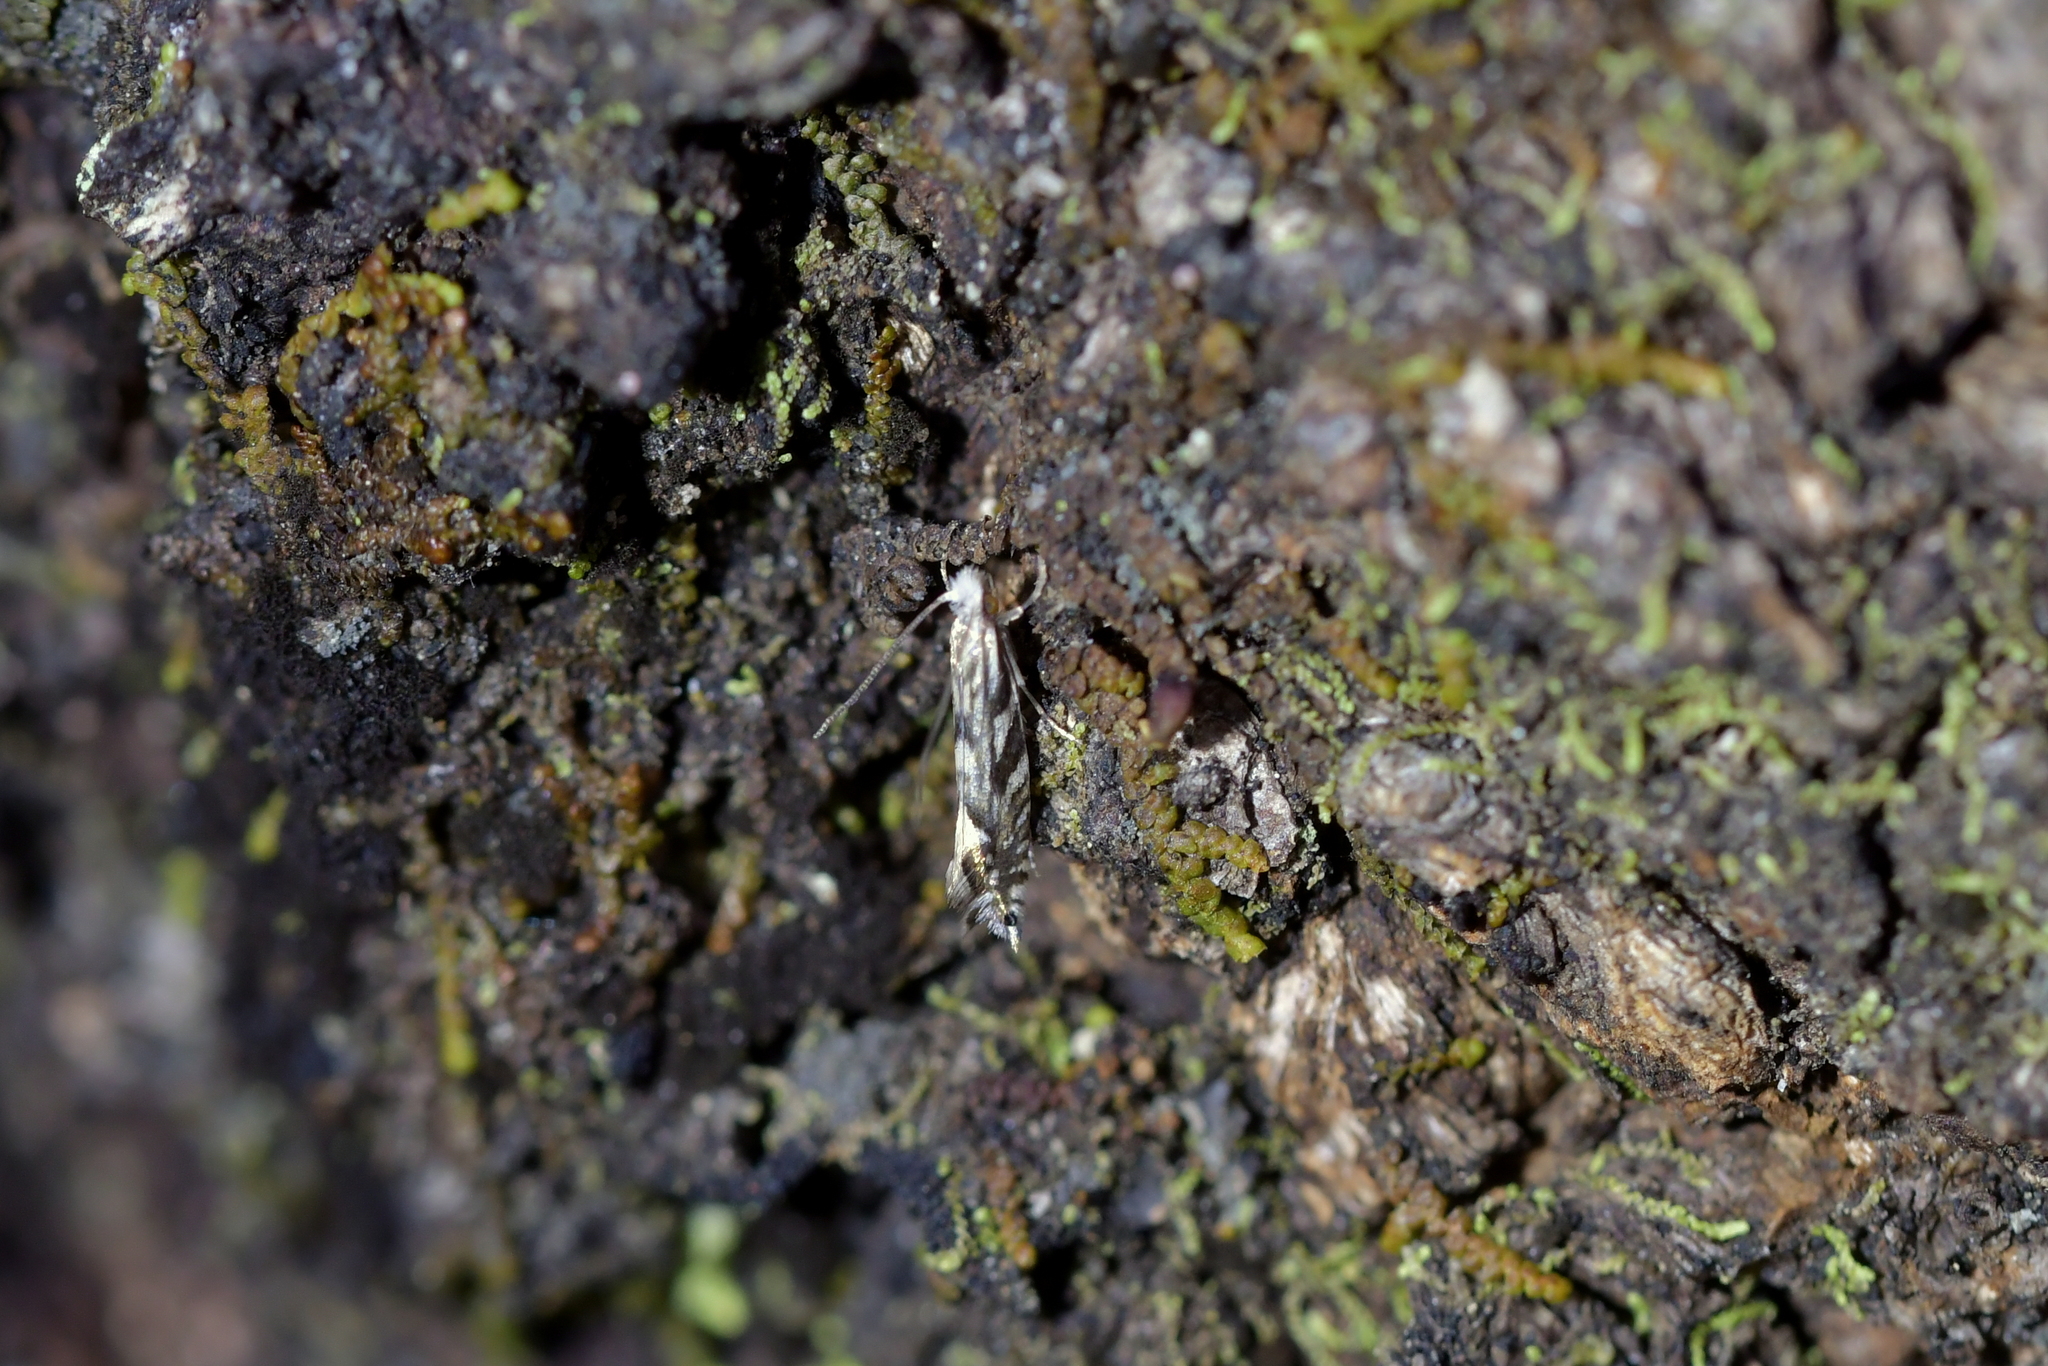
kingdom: Animalia
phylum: Arthropoda
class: Insecta
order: Lepidoptera
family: Tineidae
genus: Tinea
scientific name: Tinea accusatrix
